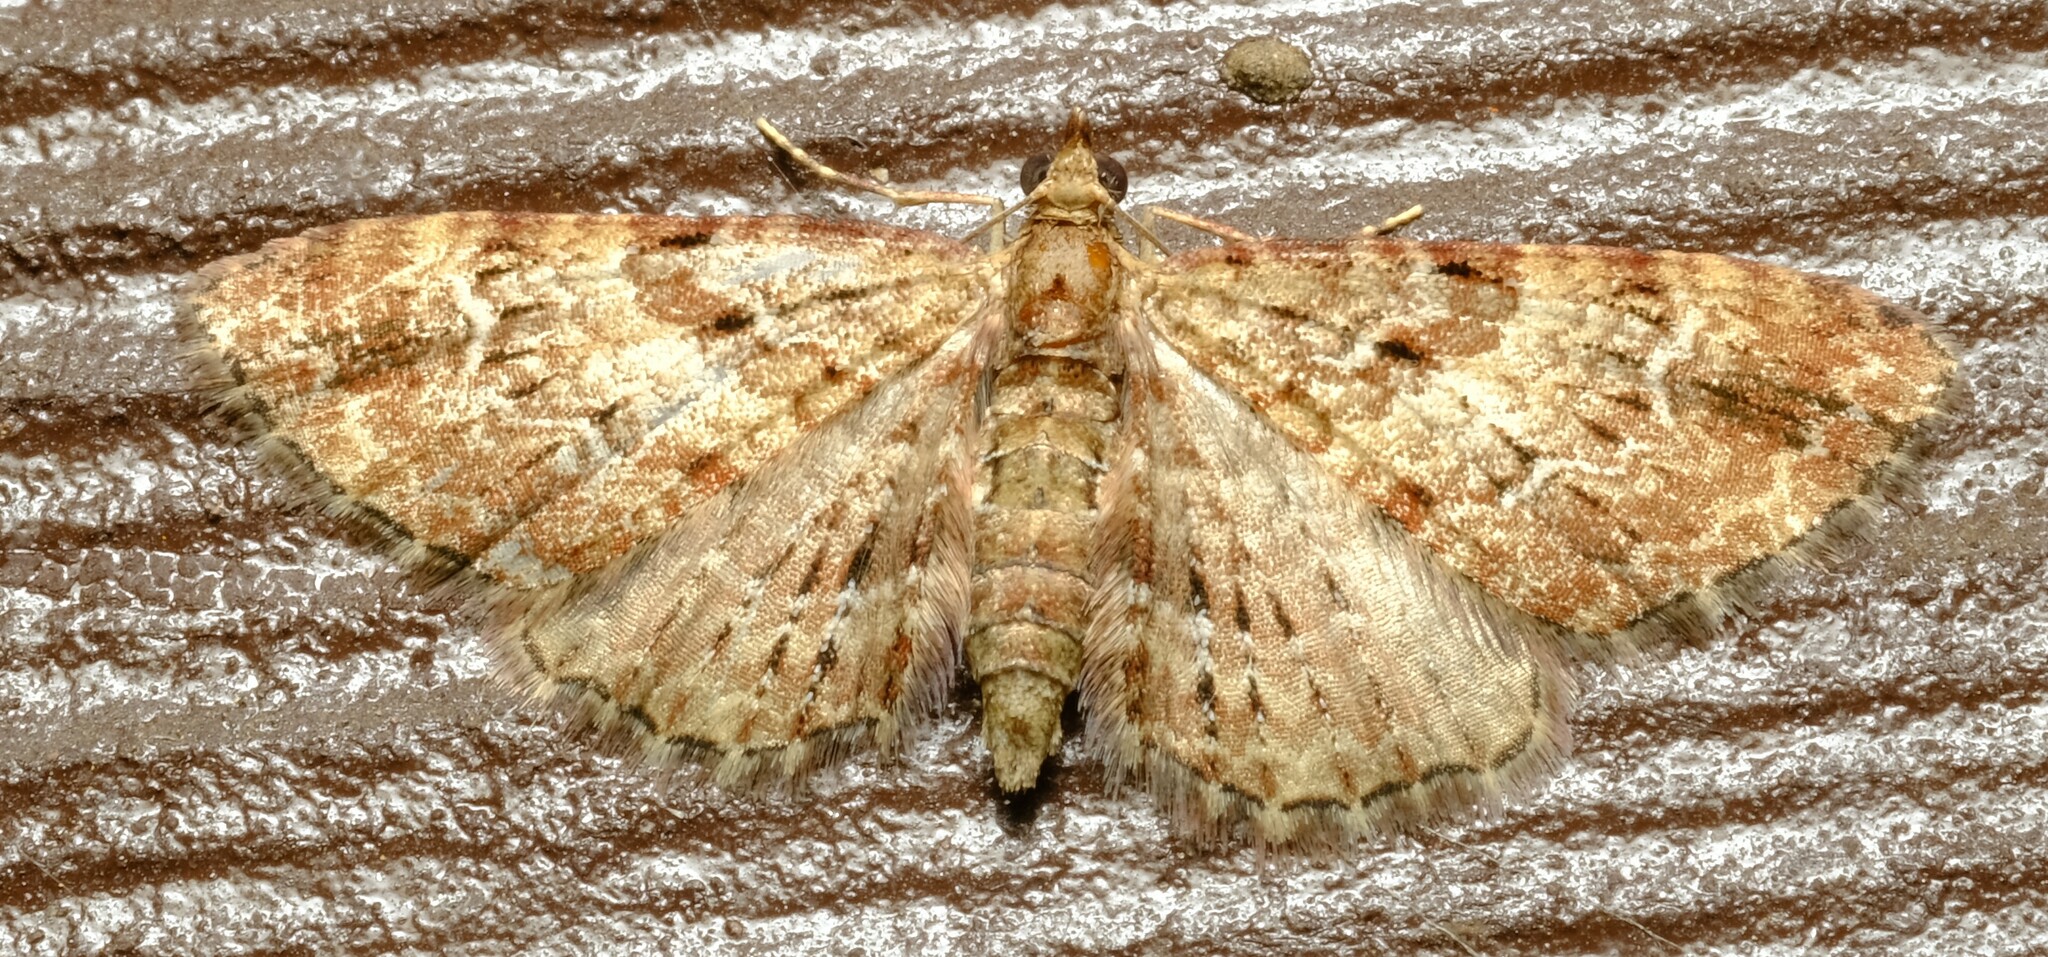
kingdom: Animalia
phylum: Arthropoda
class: Insecta
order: Lepidoptera
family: Geometridae
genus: Chloroclystis
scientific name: Chloroclystis approximata
